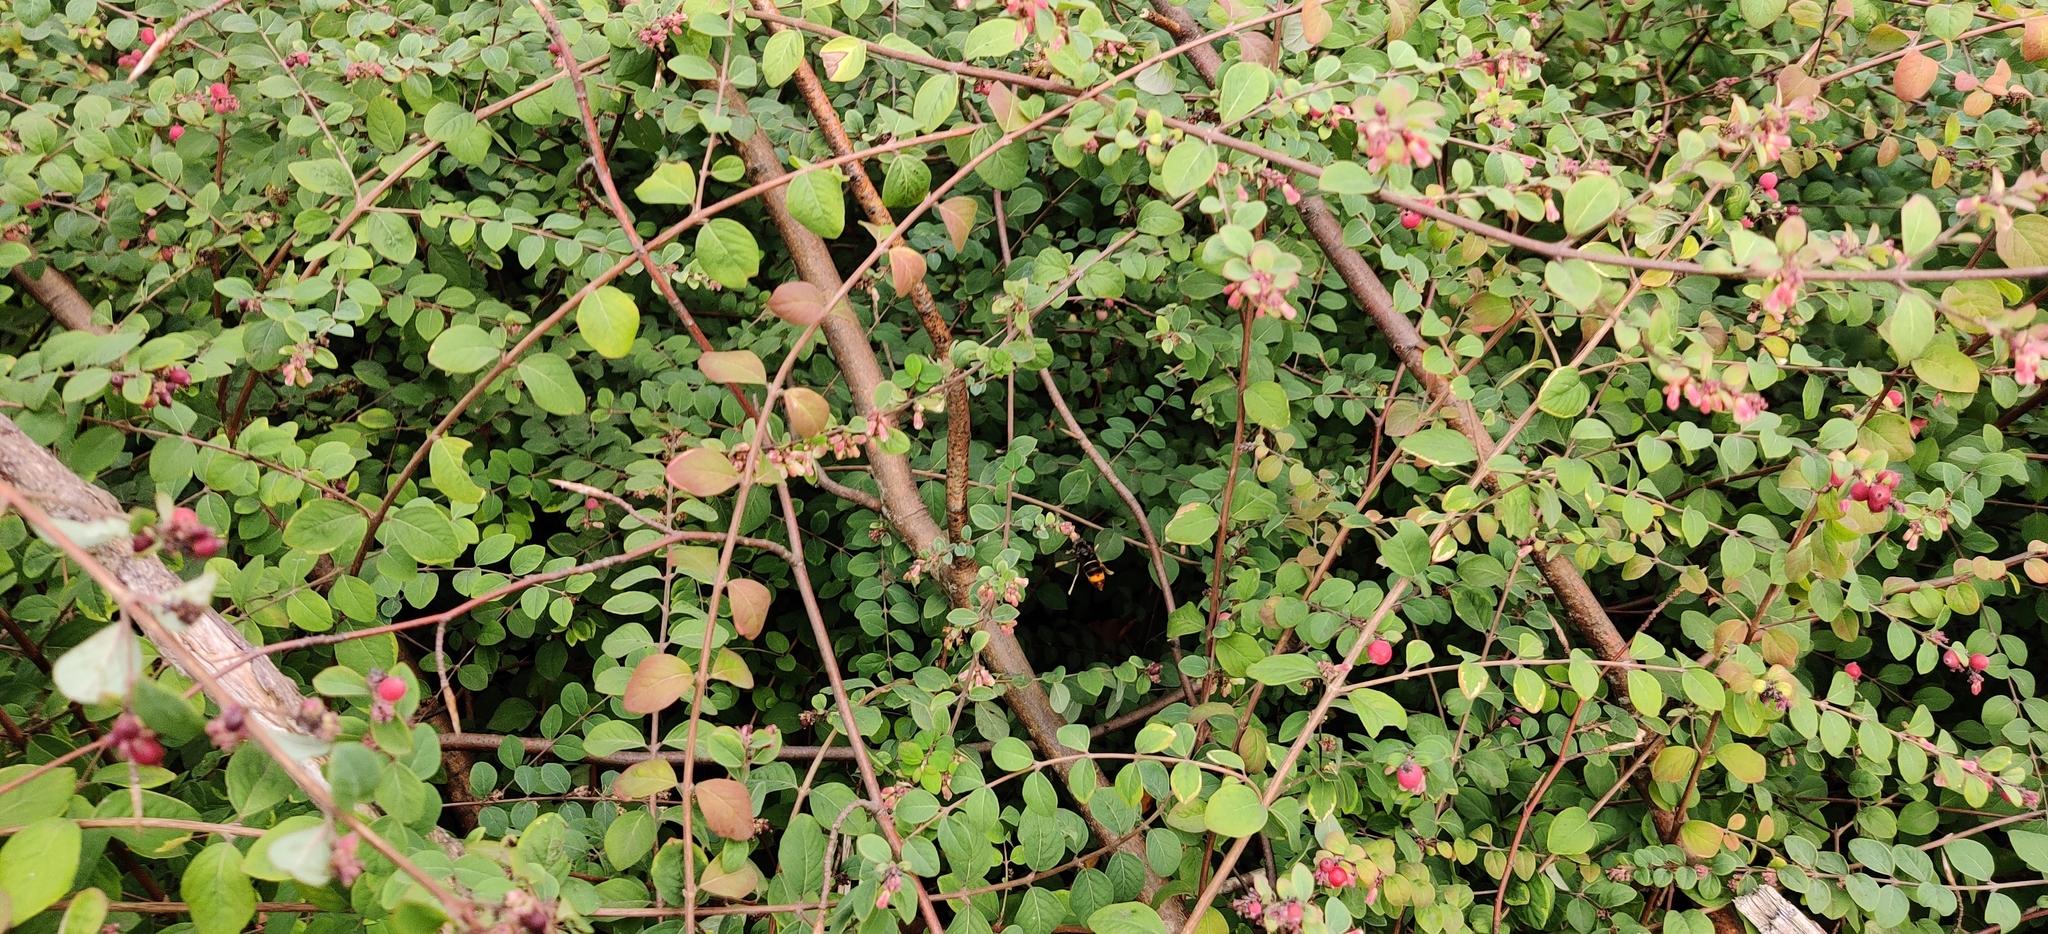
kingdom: Animalia
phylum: Arthropoda
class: Insecta
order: Hymenoptera
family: Vespidae
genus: Vespa
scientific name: Vespa velutina
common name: Asian hornet
